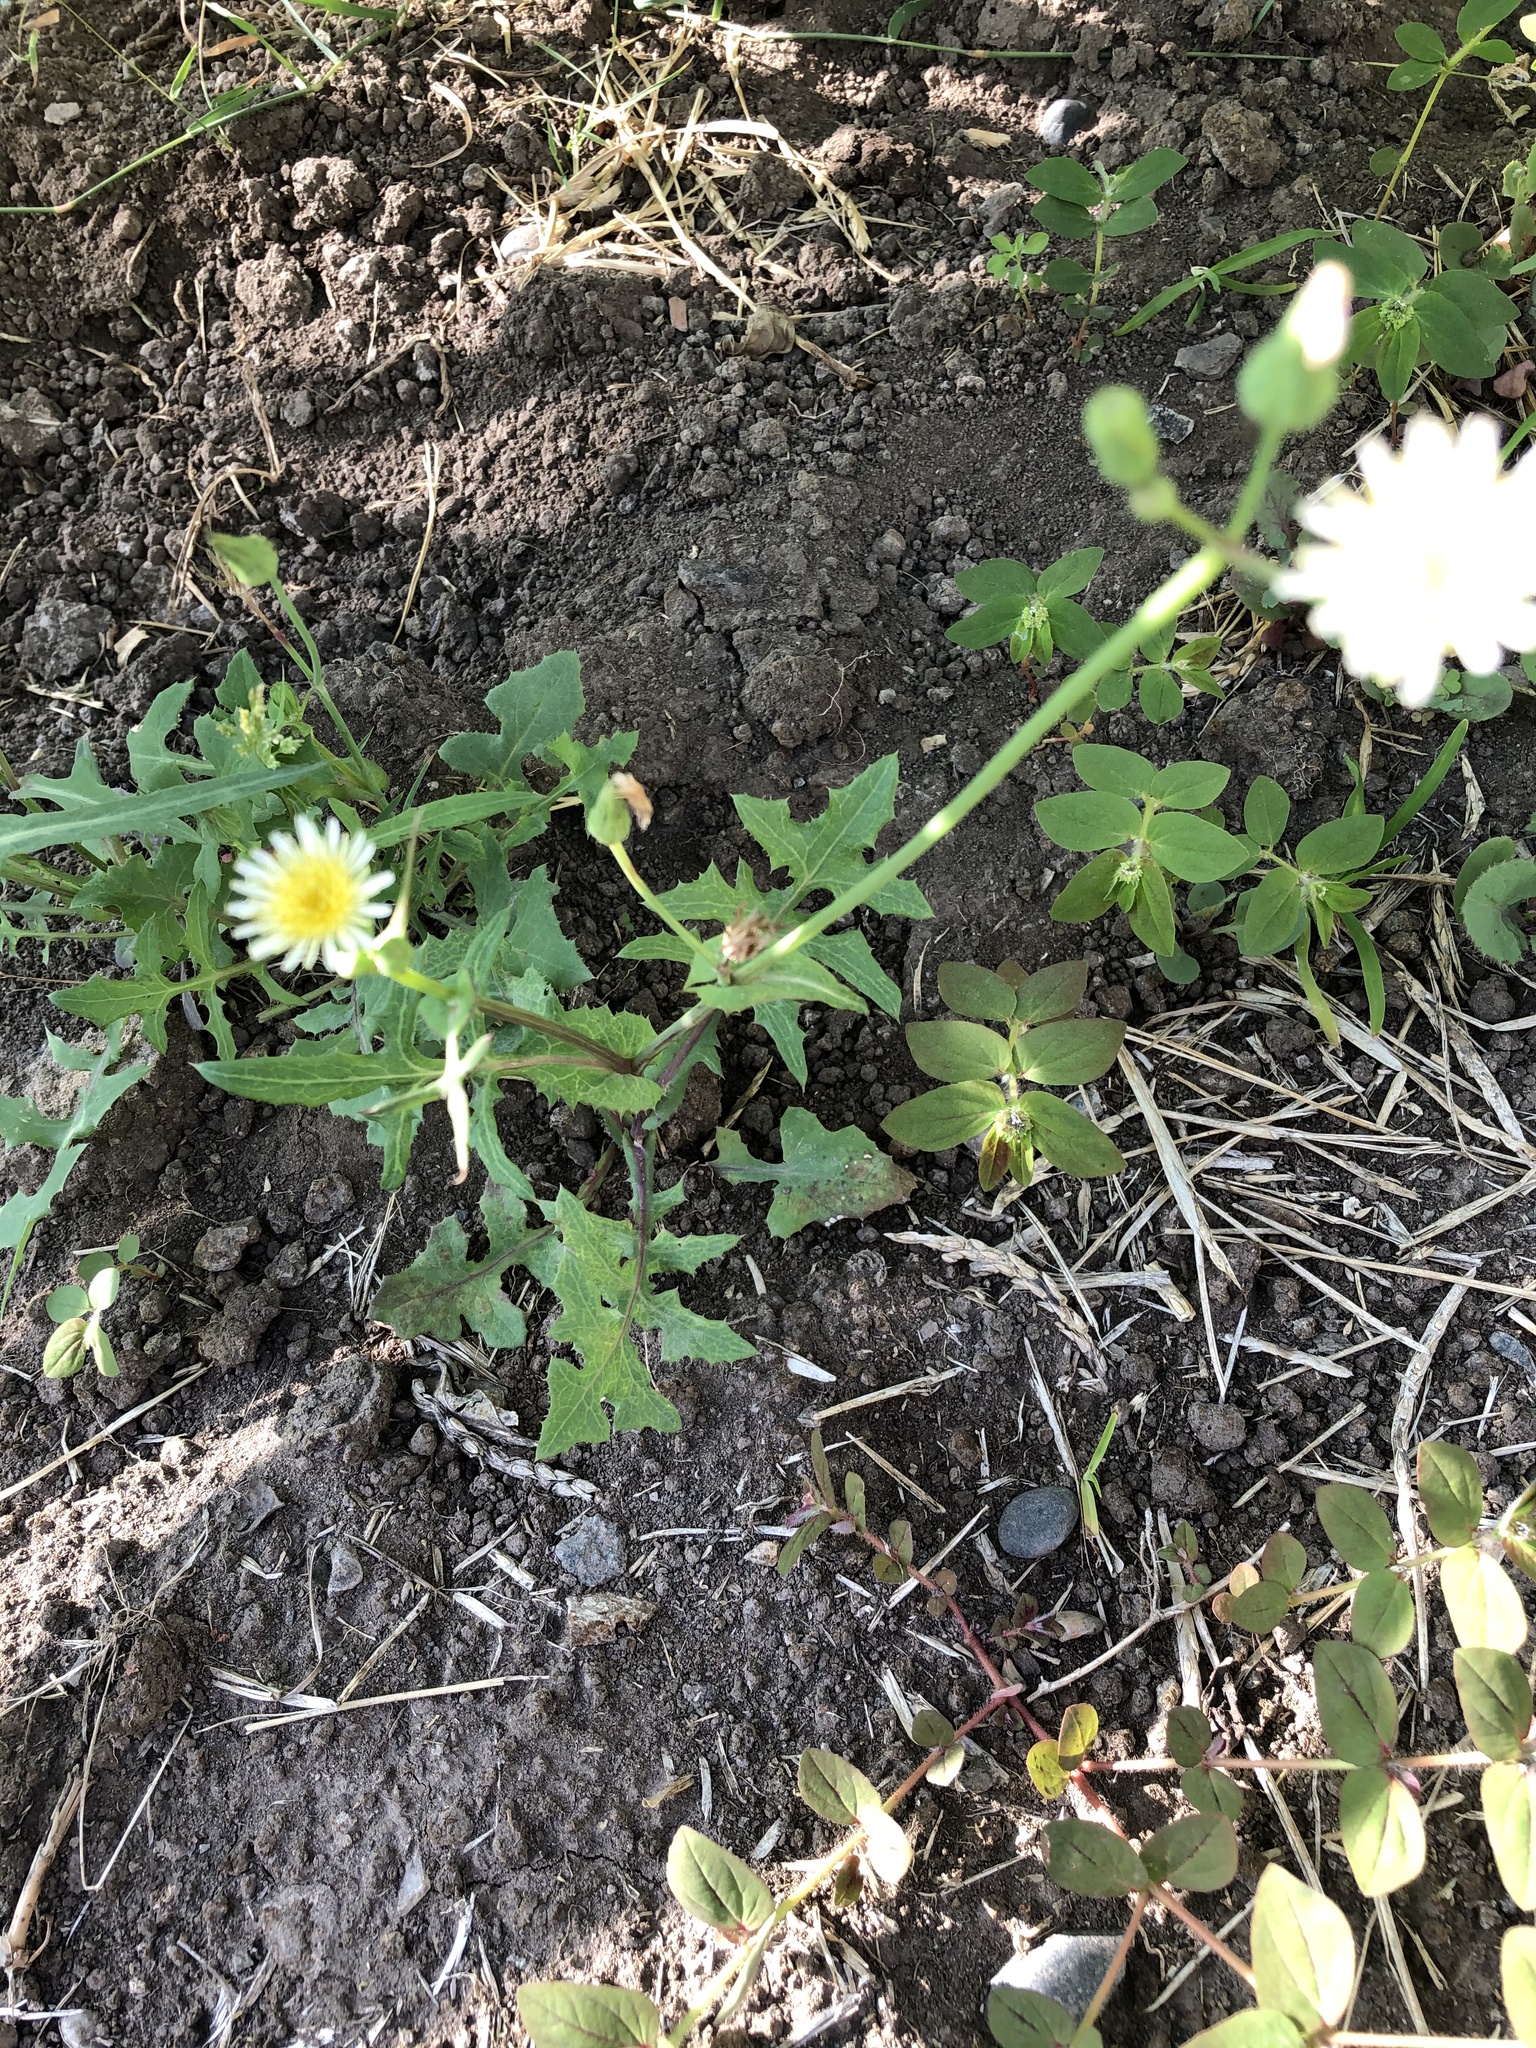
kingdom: Plantae
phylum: Tracheophyta
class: Magnoliopsida
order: Asterales
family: Asteraceae
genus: Sonchus
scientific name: Sonchus oleraceus
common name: Common sowthistle
